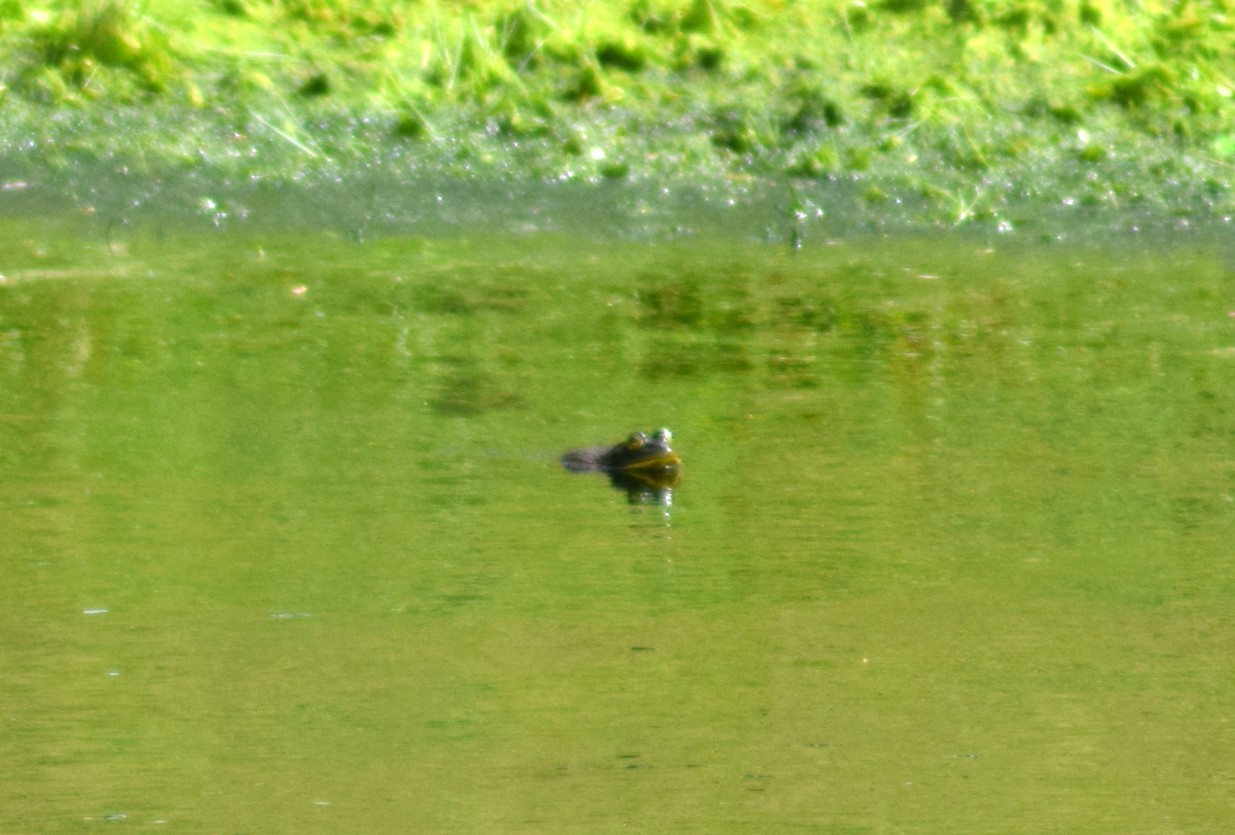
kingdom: Animalia
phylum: Chordata
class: Amphibia
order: Anura
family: Ranidae
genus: Lithobates
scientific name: Lithobates
